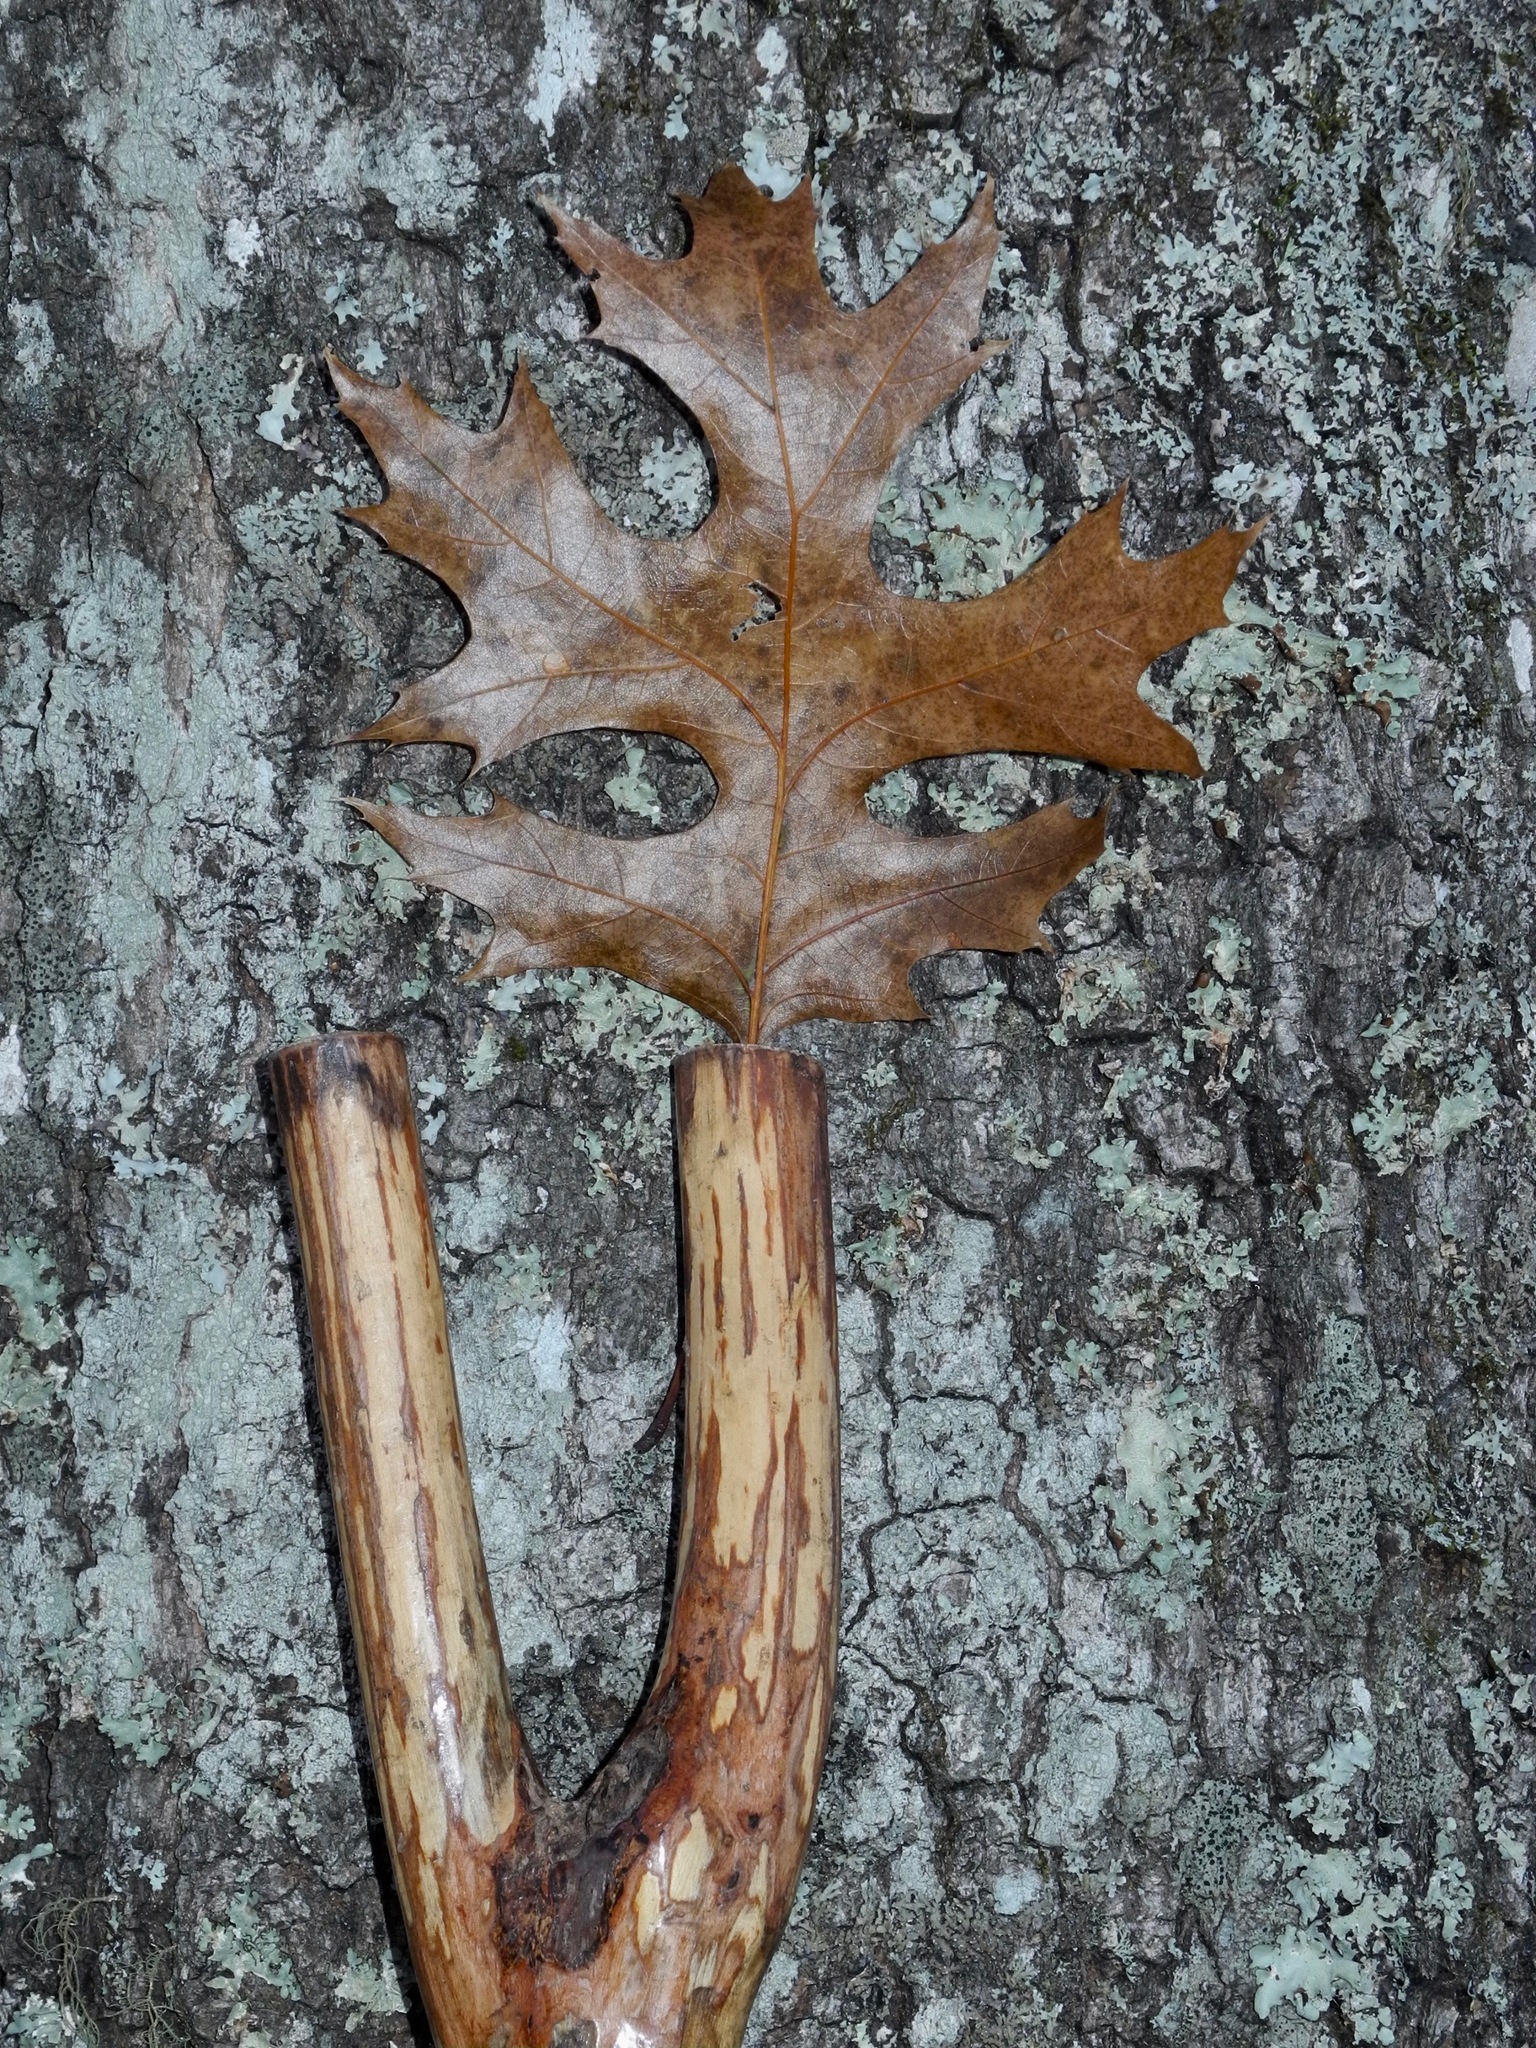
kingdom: Plantae
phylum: Tracheophyta
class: Magnoliopsida
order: Fagales
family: Fagaceae
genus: Quercus
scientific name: Quercus coccinea
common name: Scarlet oak
